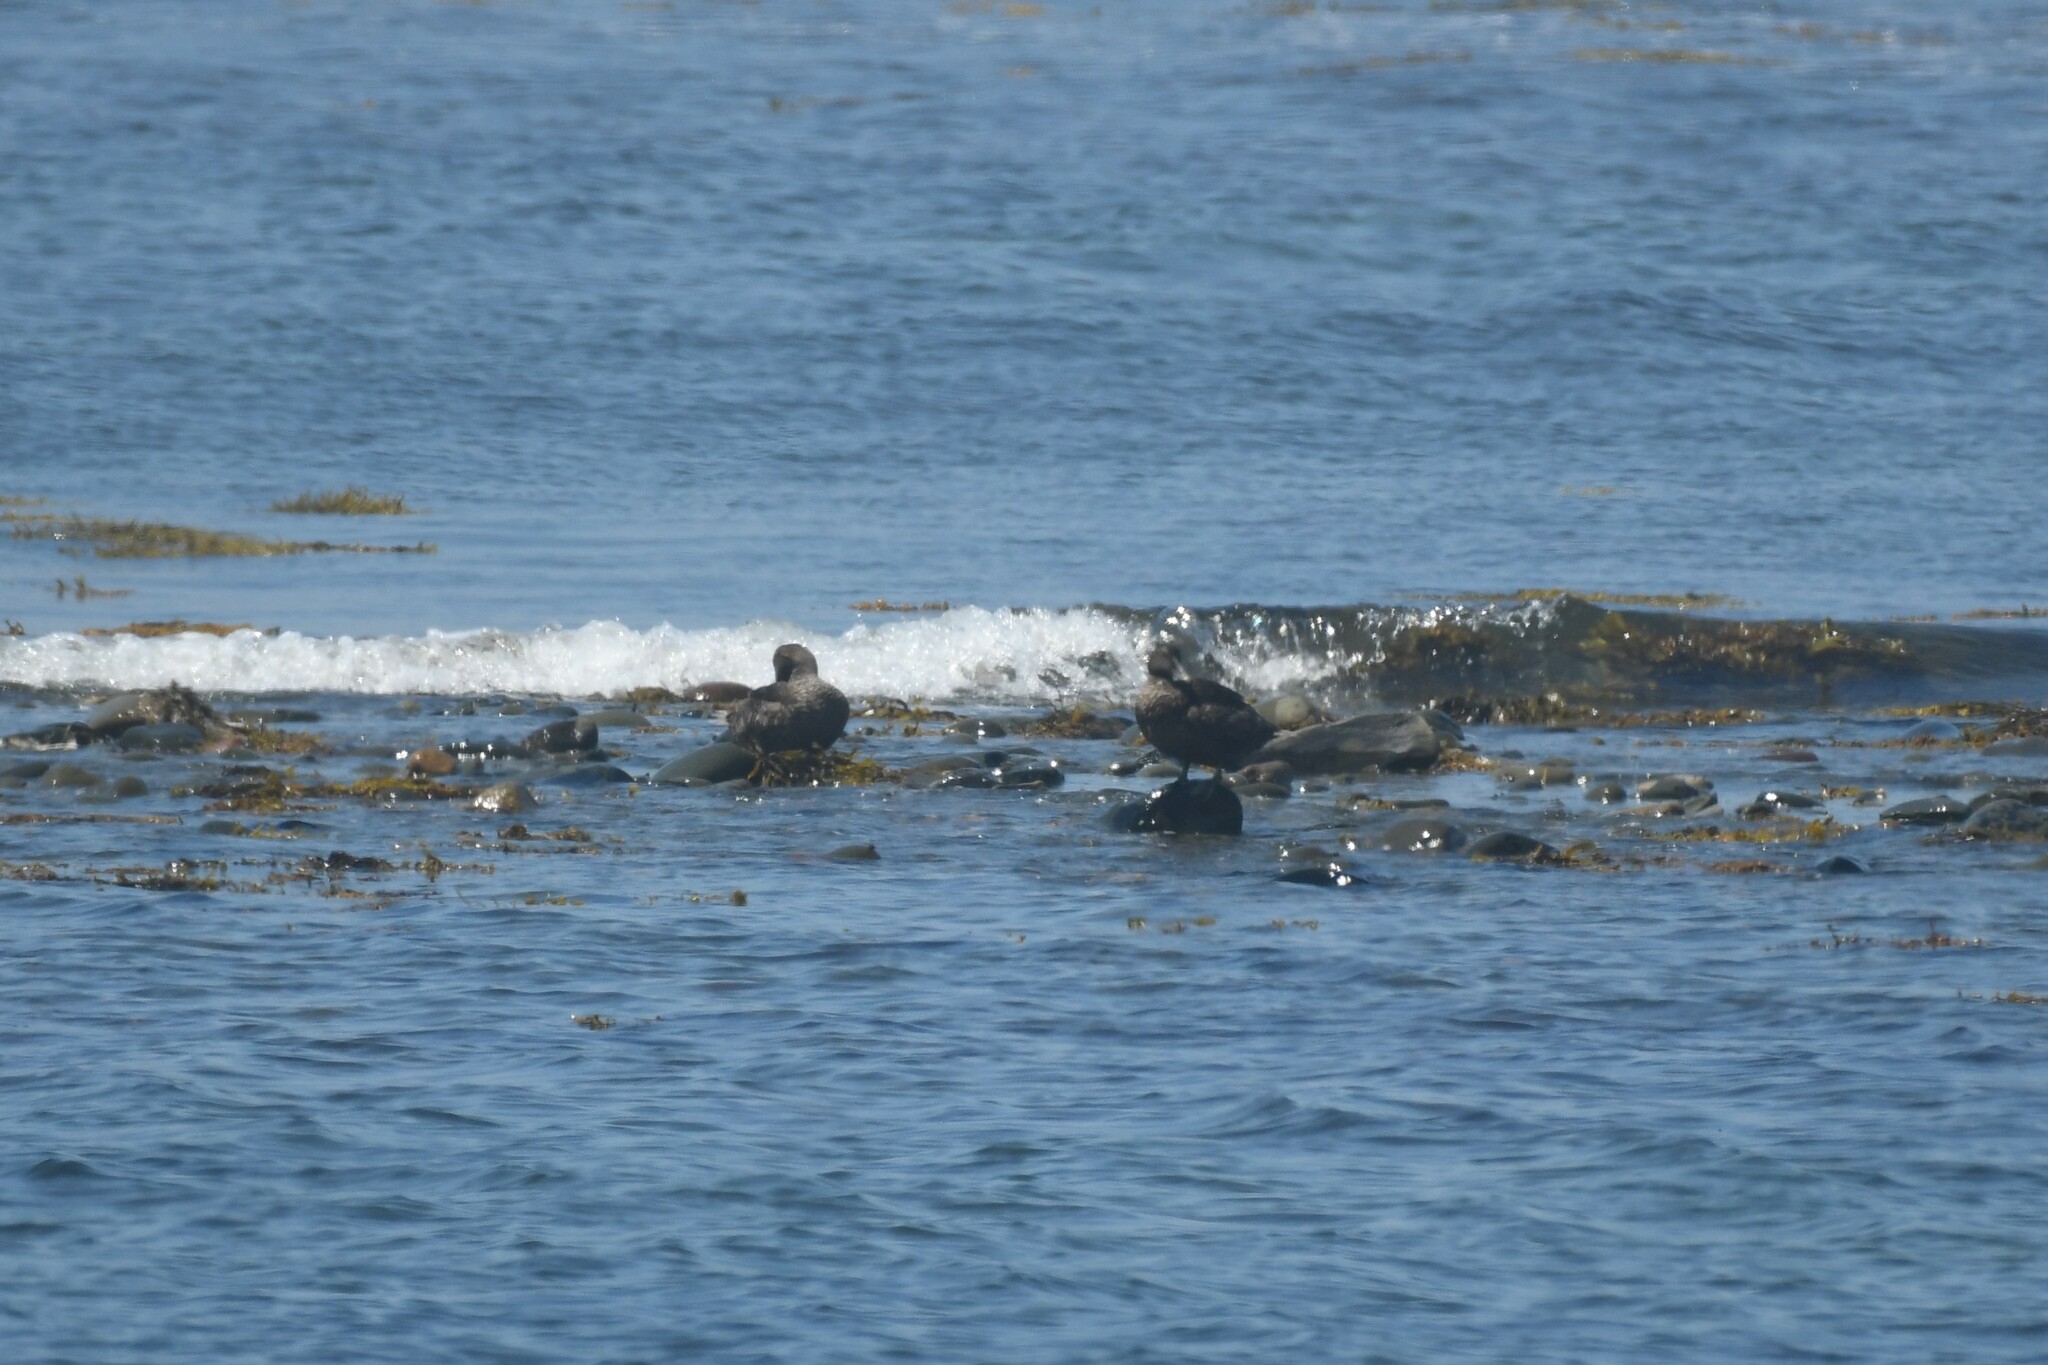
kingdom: Animalia
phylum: Chordata
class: Aves
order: Anseriformes
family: Anatidae
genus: Somateria
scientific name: Somateria mollissima
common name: Common eider
